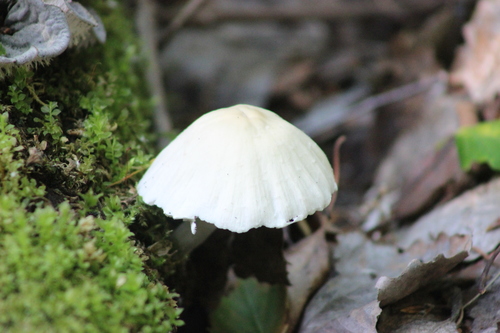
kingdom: Fungi
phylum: Basidiomycota
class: Agaricomycetes
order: Agaricales
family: Psathyrellaceae
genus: Psathyrella
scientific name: Psathyrella
